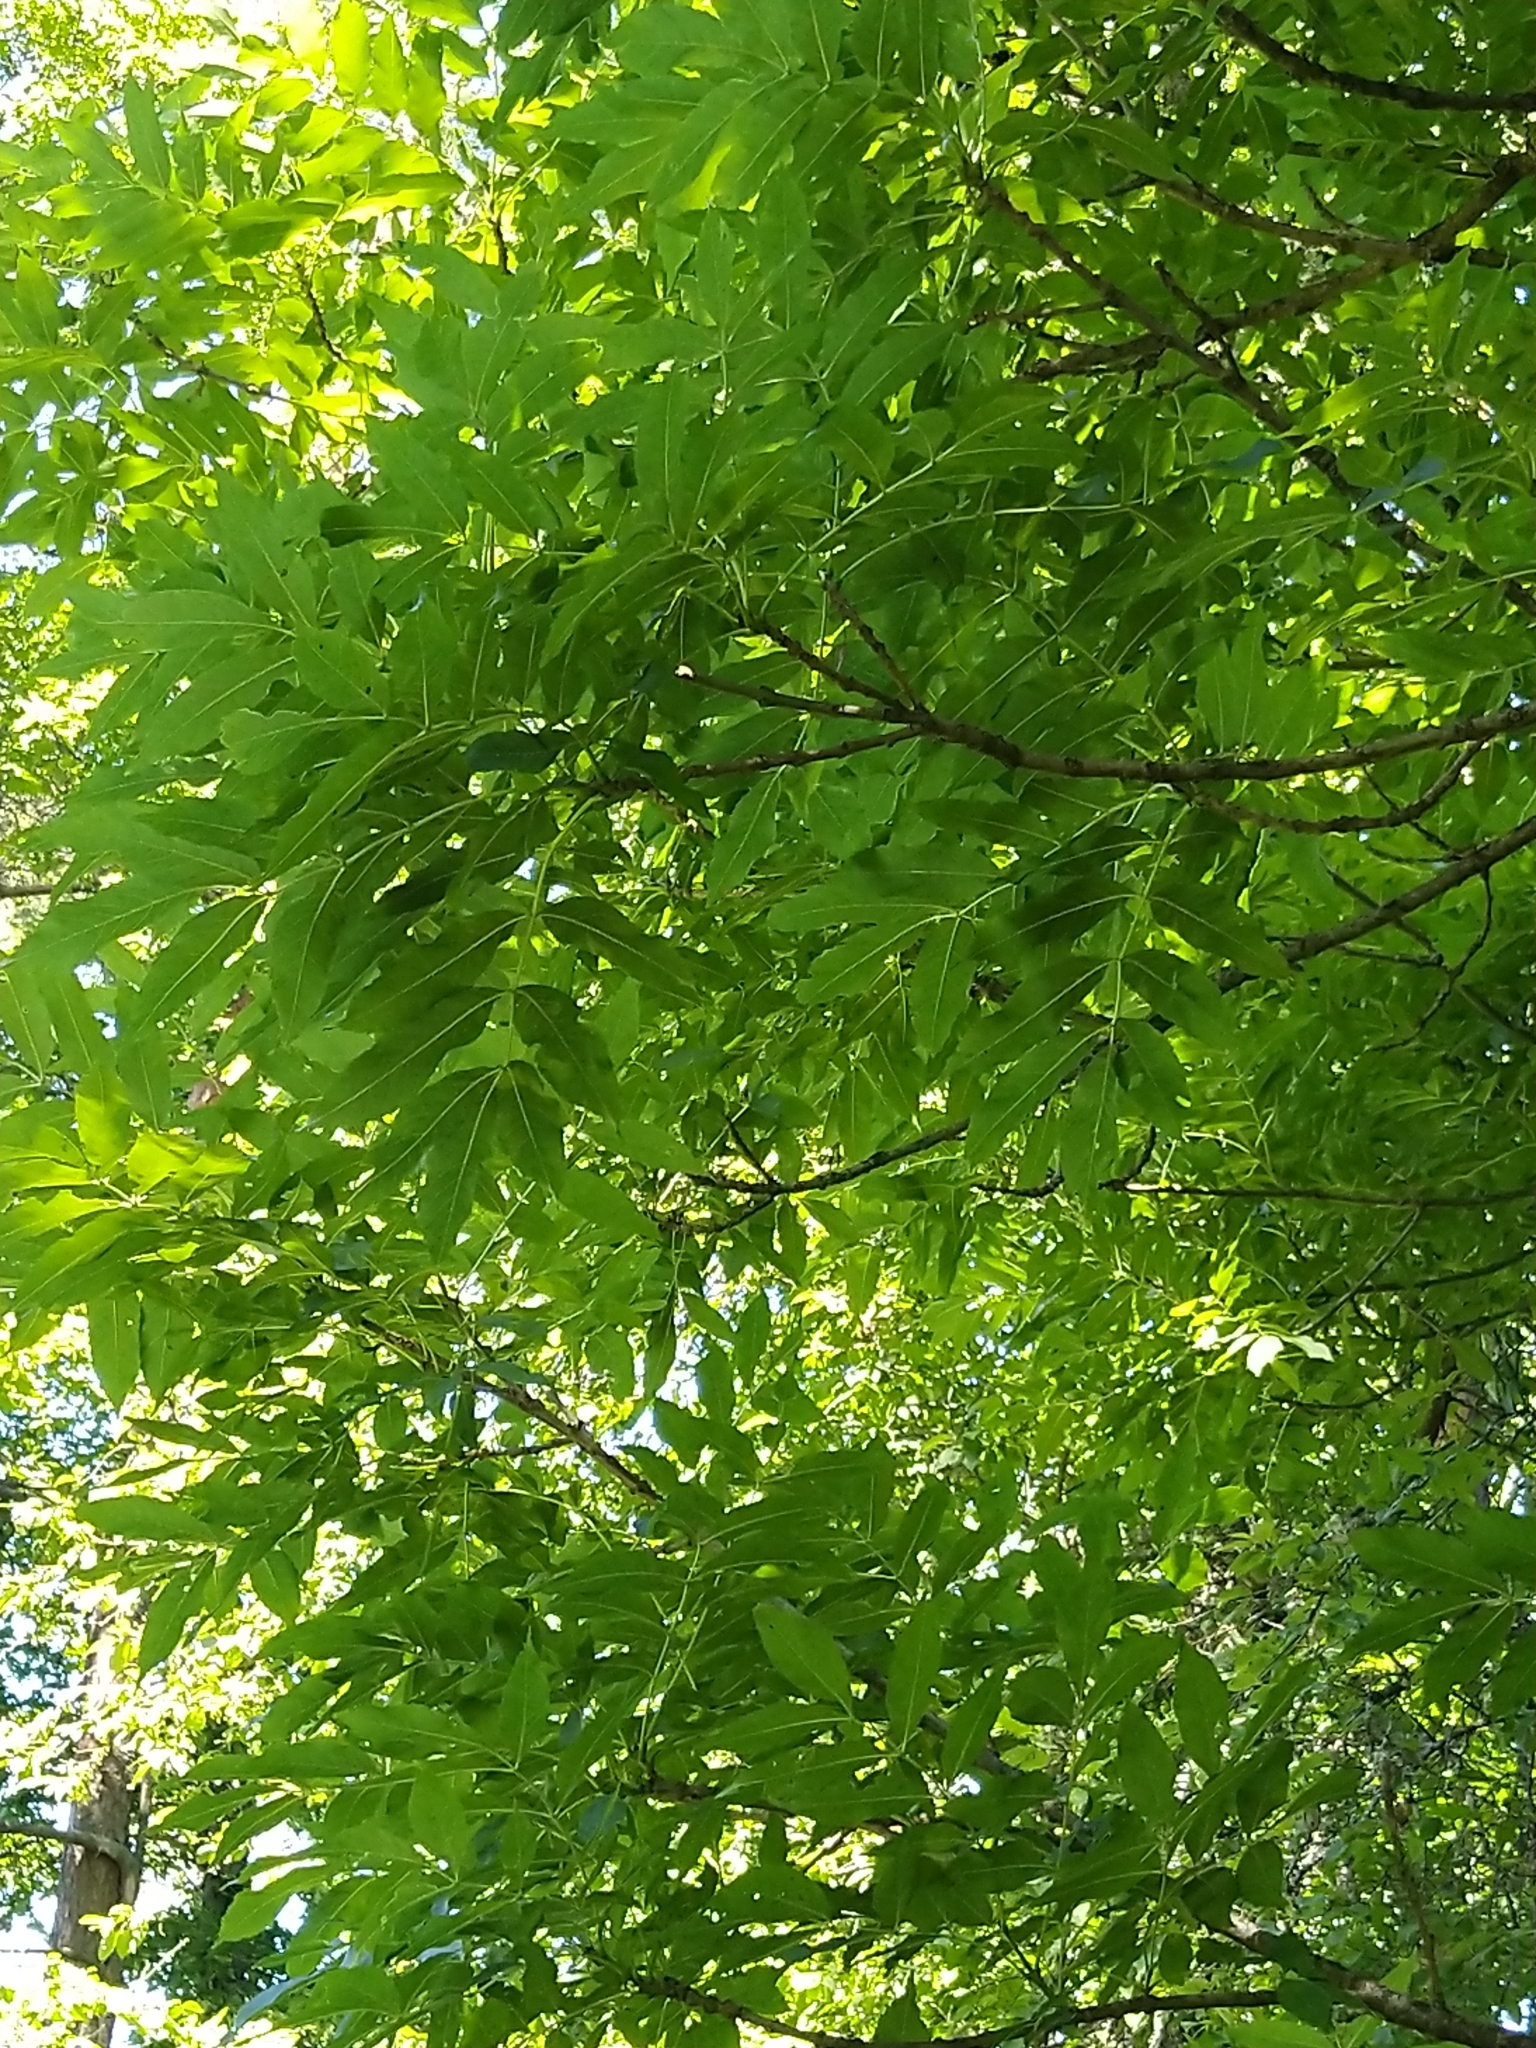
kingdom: Plantae
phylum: Tracheophyta
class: Magnoliopsida
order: Lamiales
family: Oleaceae
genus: Fraxinus
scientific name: Fraxinus excelsior
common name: European ash
